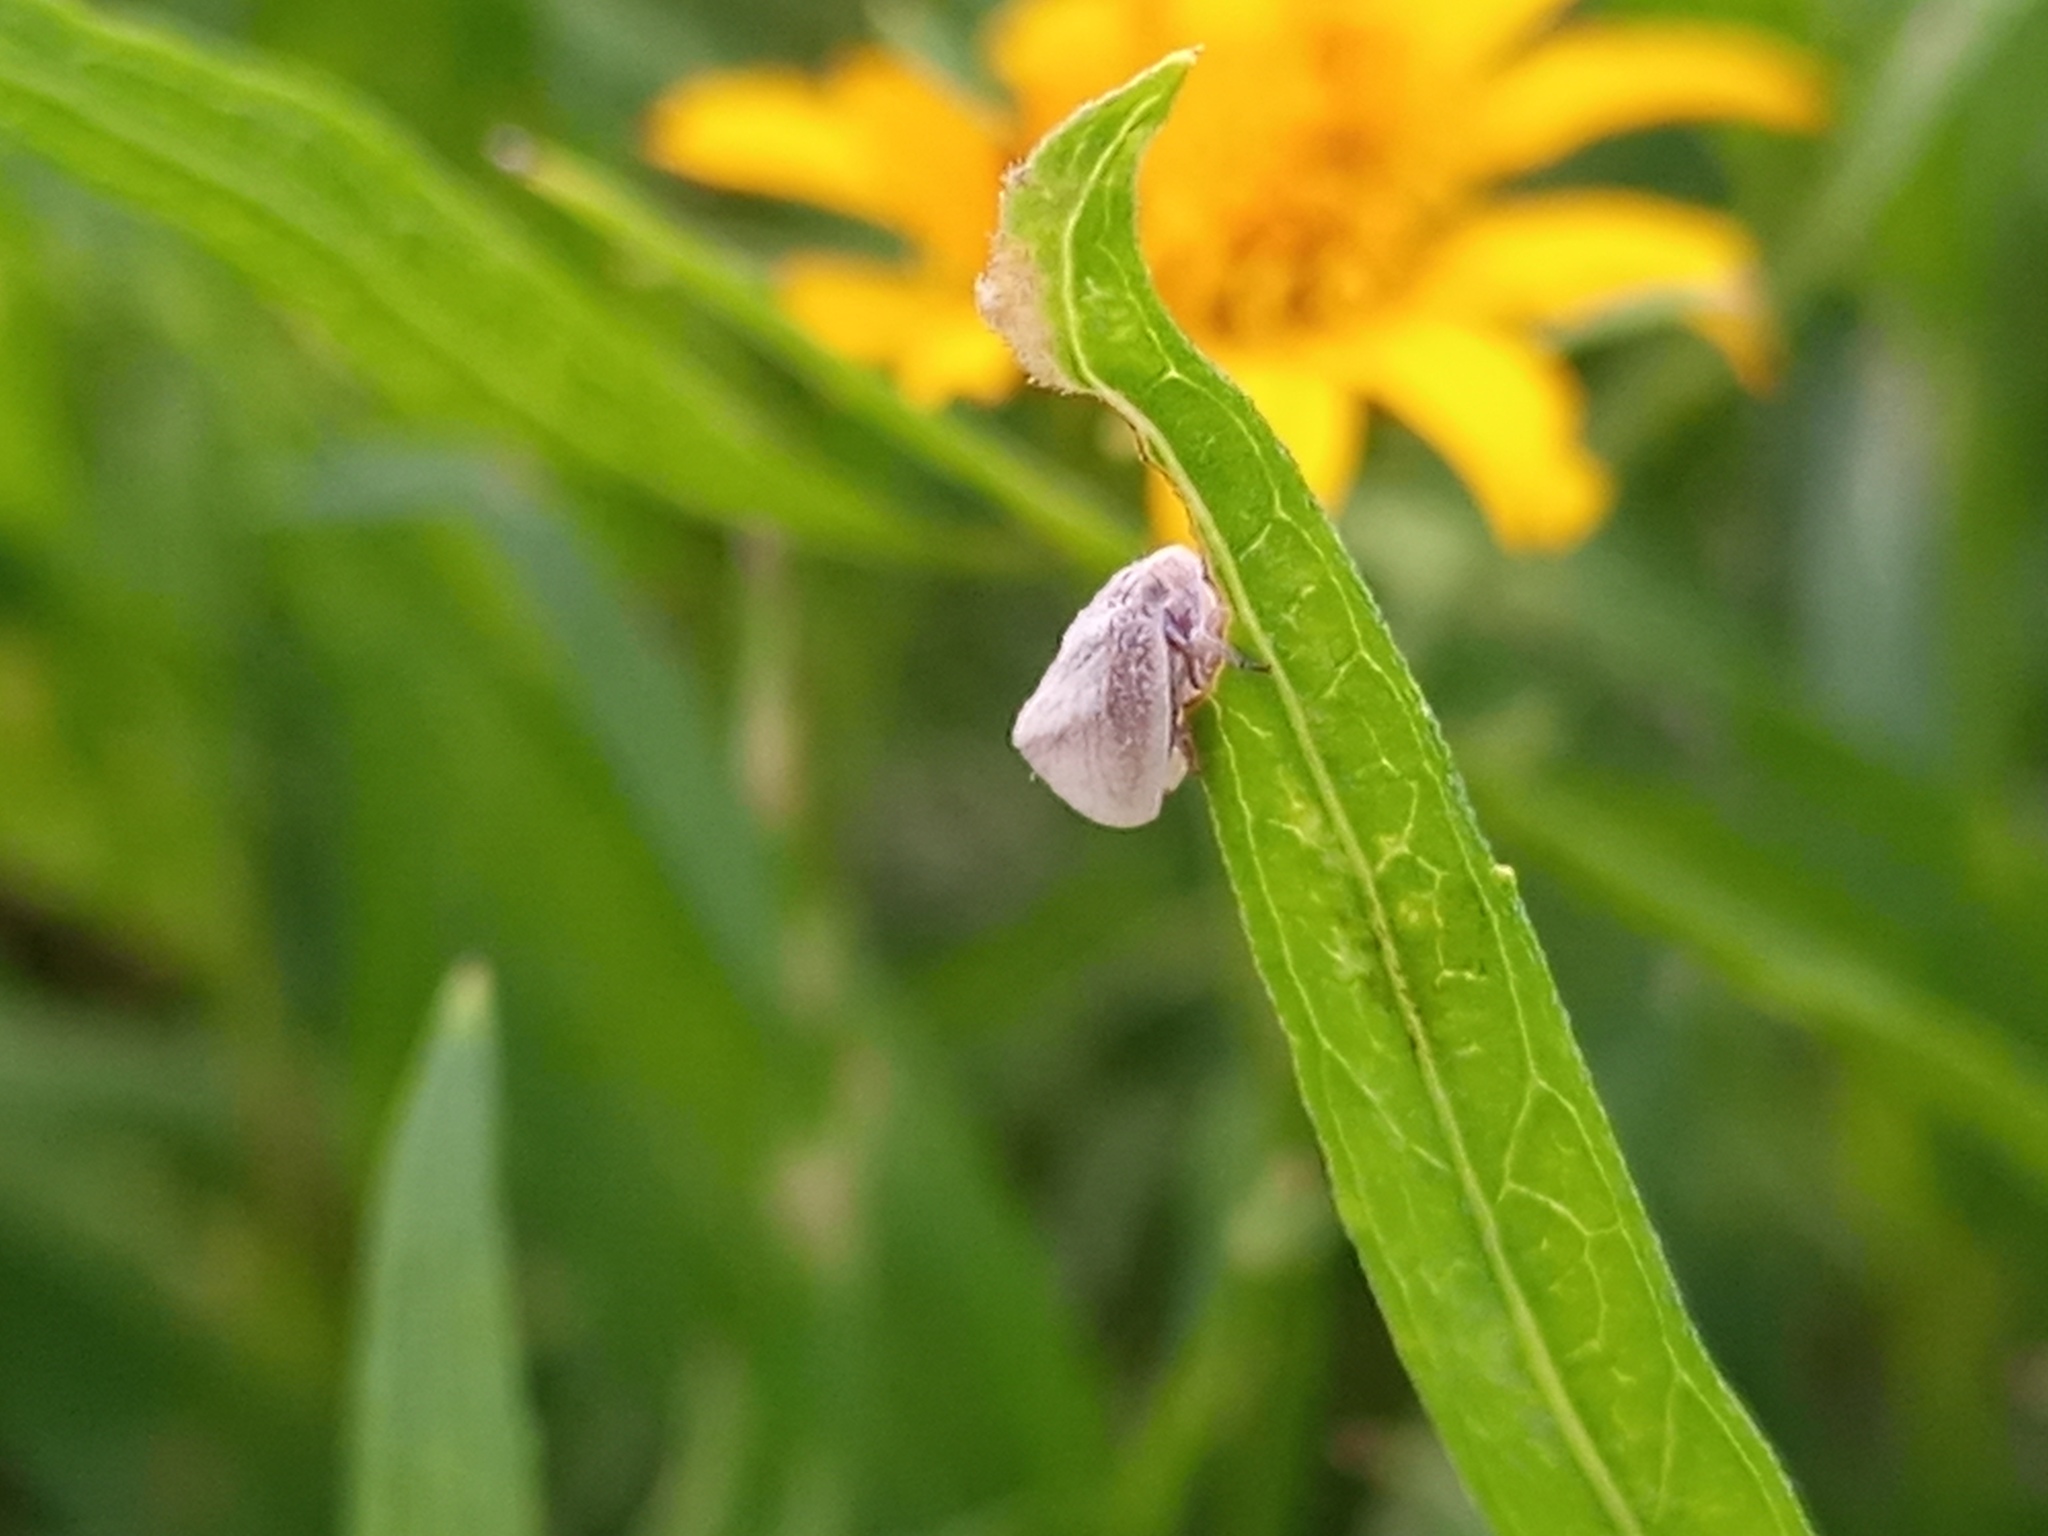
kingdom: Animalia
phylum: Arthropoda
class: Insecta
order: Hemiptera
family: Flatidae
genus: Byllis
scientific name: Byllis subgranulata
